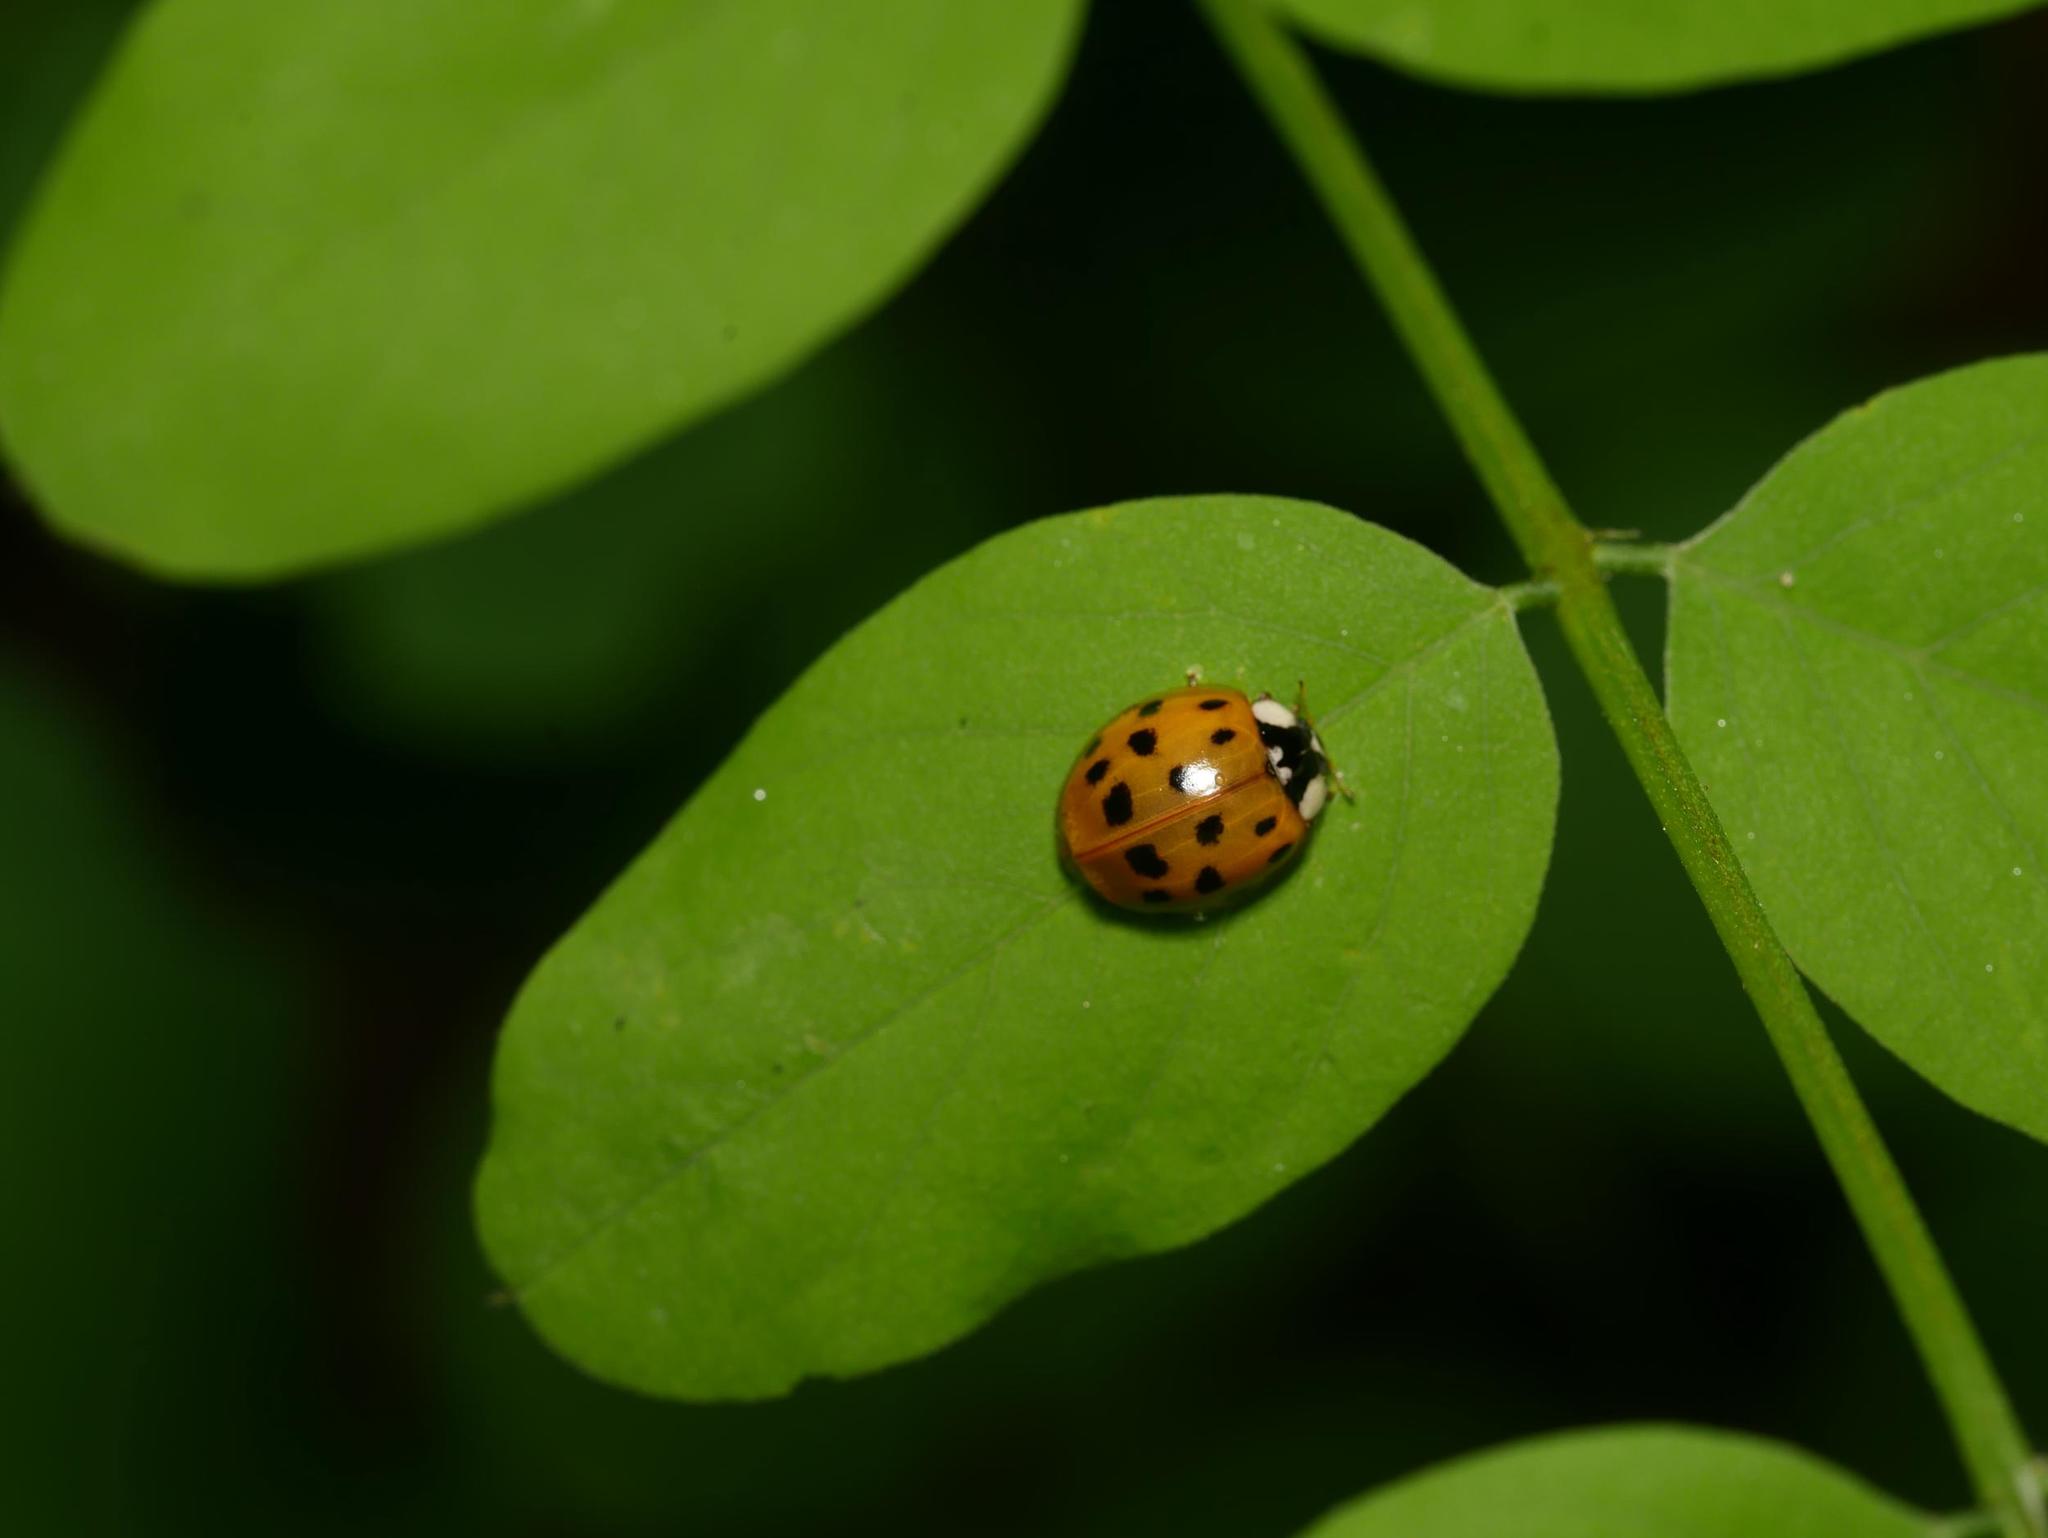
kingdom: Plantae
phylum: Tracheophyta
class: Magnoliopsida
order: Fabales
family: Fabaceae
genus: Robinia
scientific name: Robinia pseudoacacia
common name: Black locust
